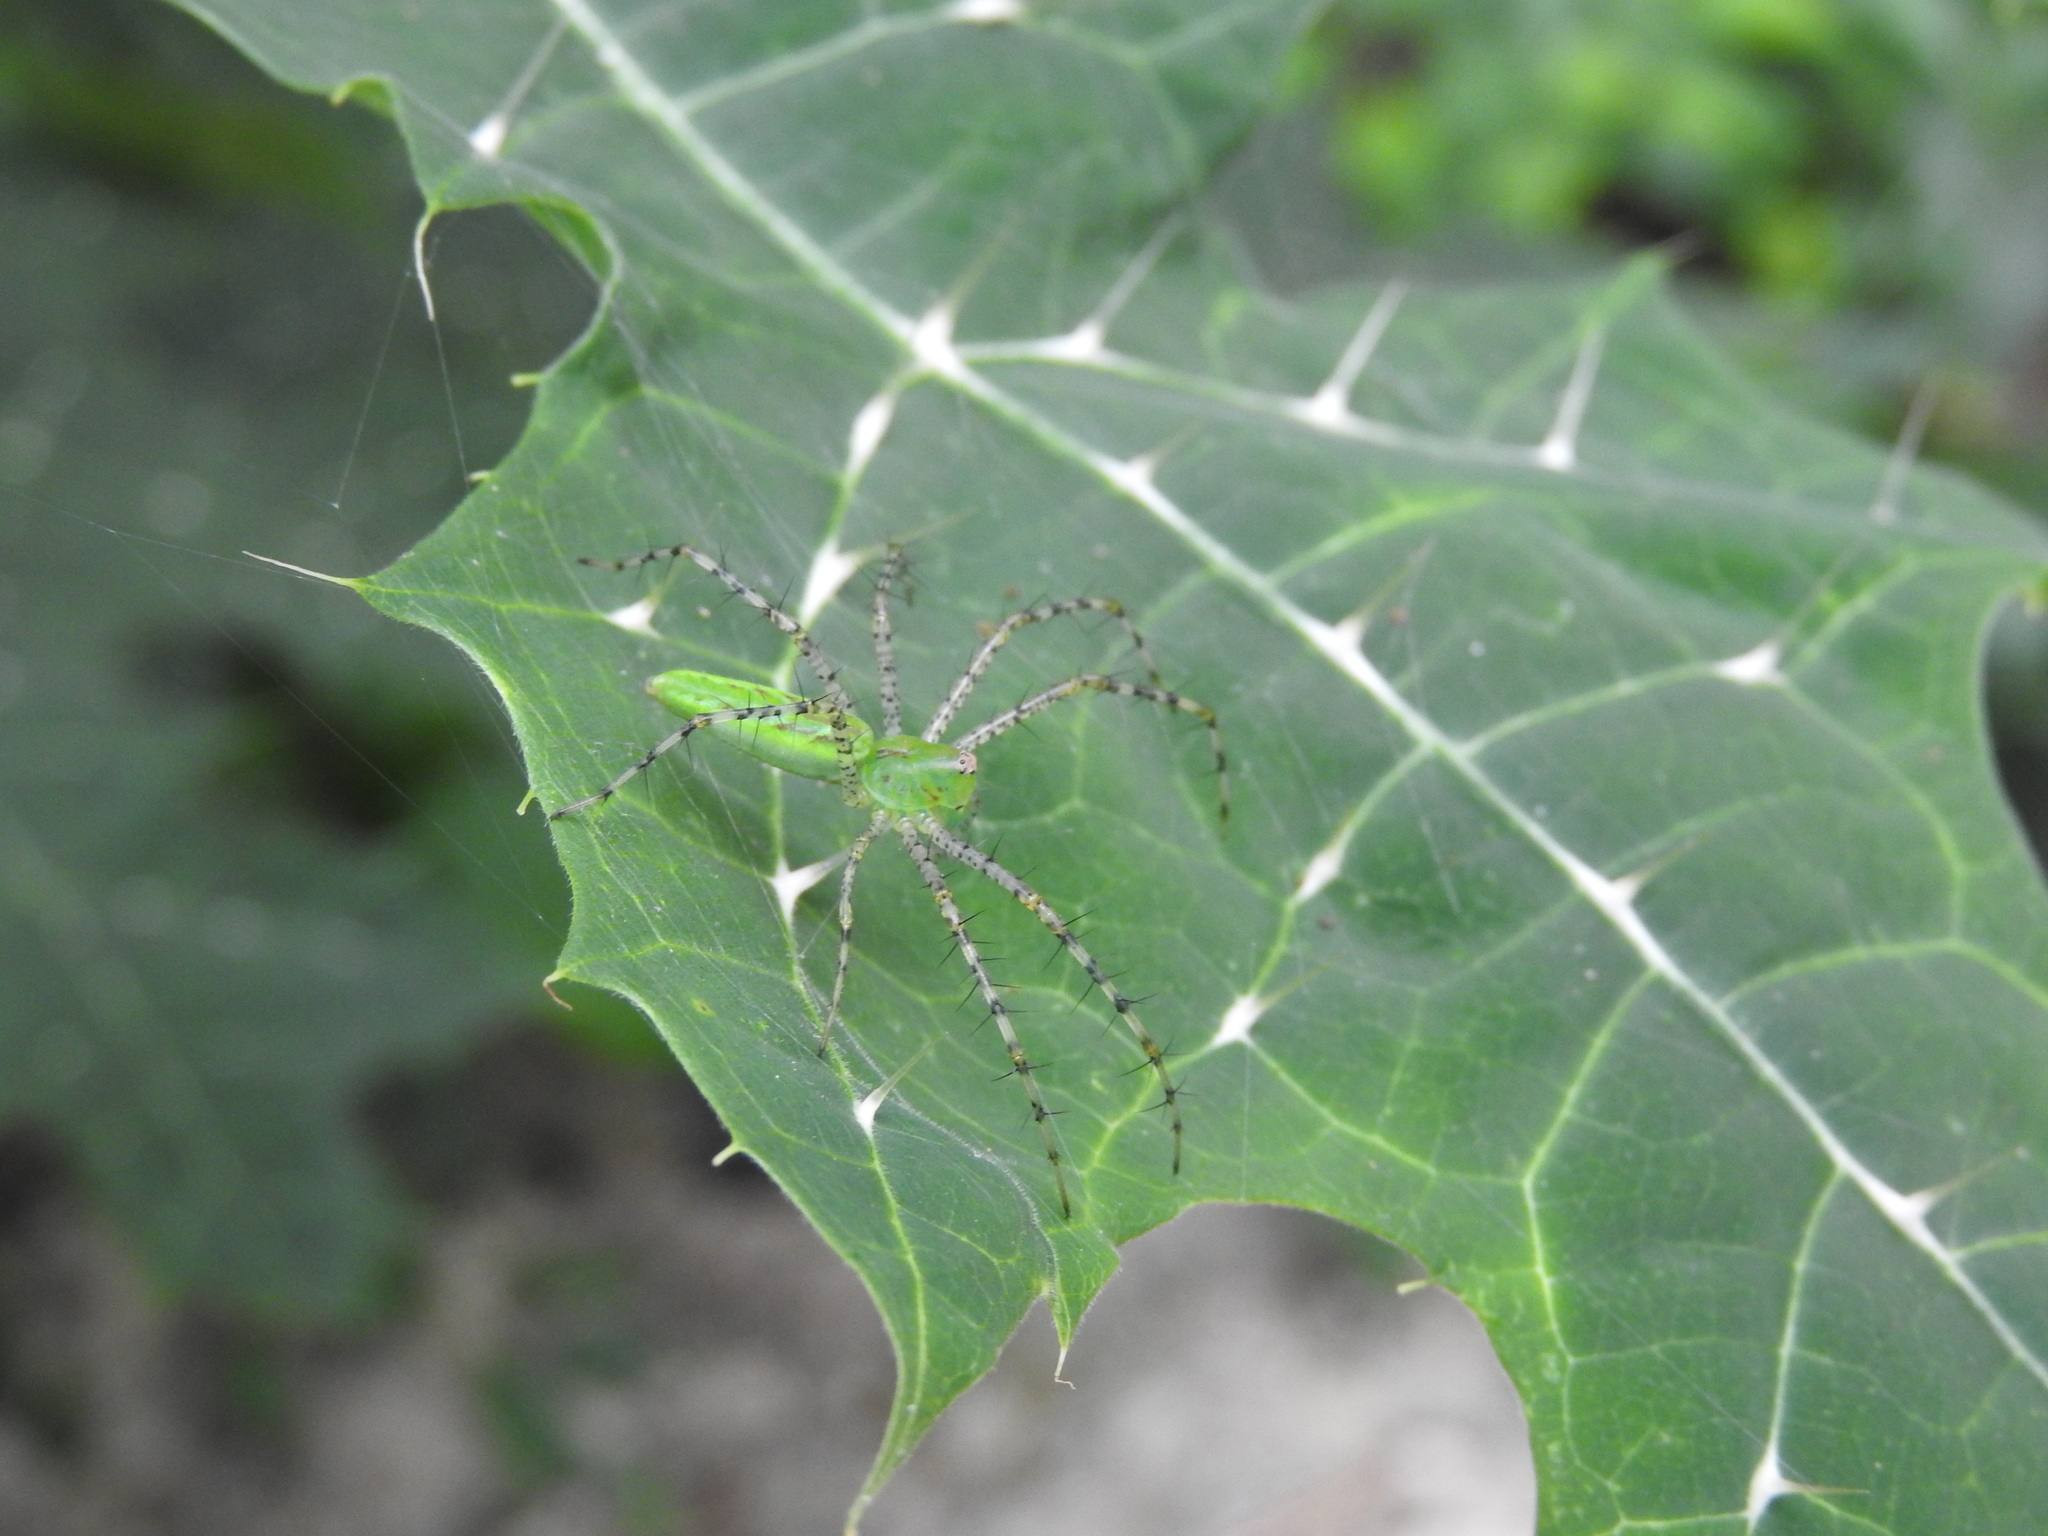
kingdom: Animalia
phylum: Arthropoda
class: Arachnida
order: Araneae
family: Oxyopidae
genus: Peucetia
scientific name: Peucetia longipalpis
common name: Lynx spiders
